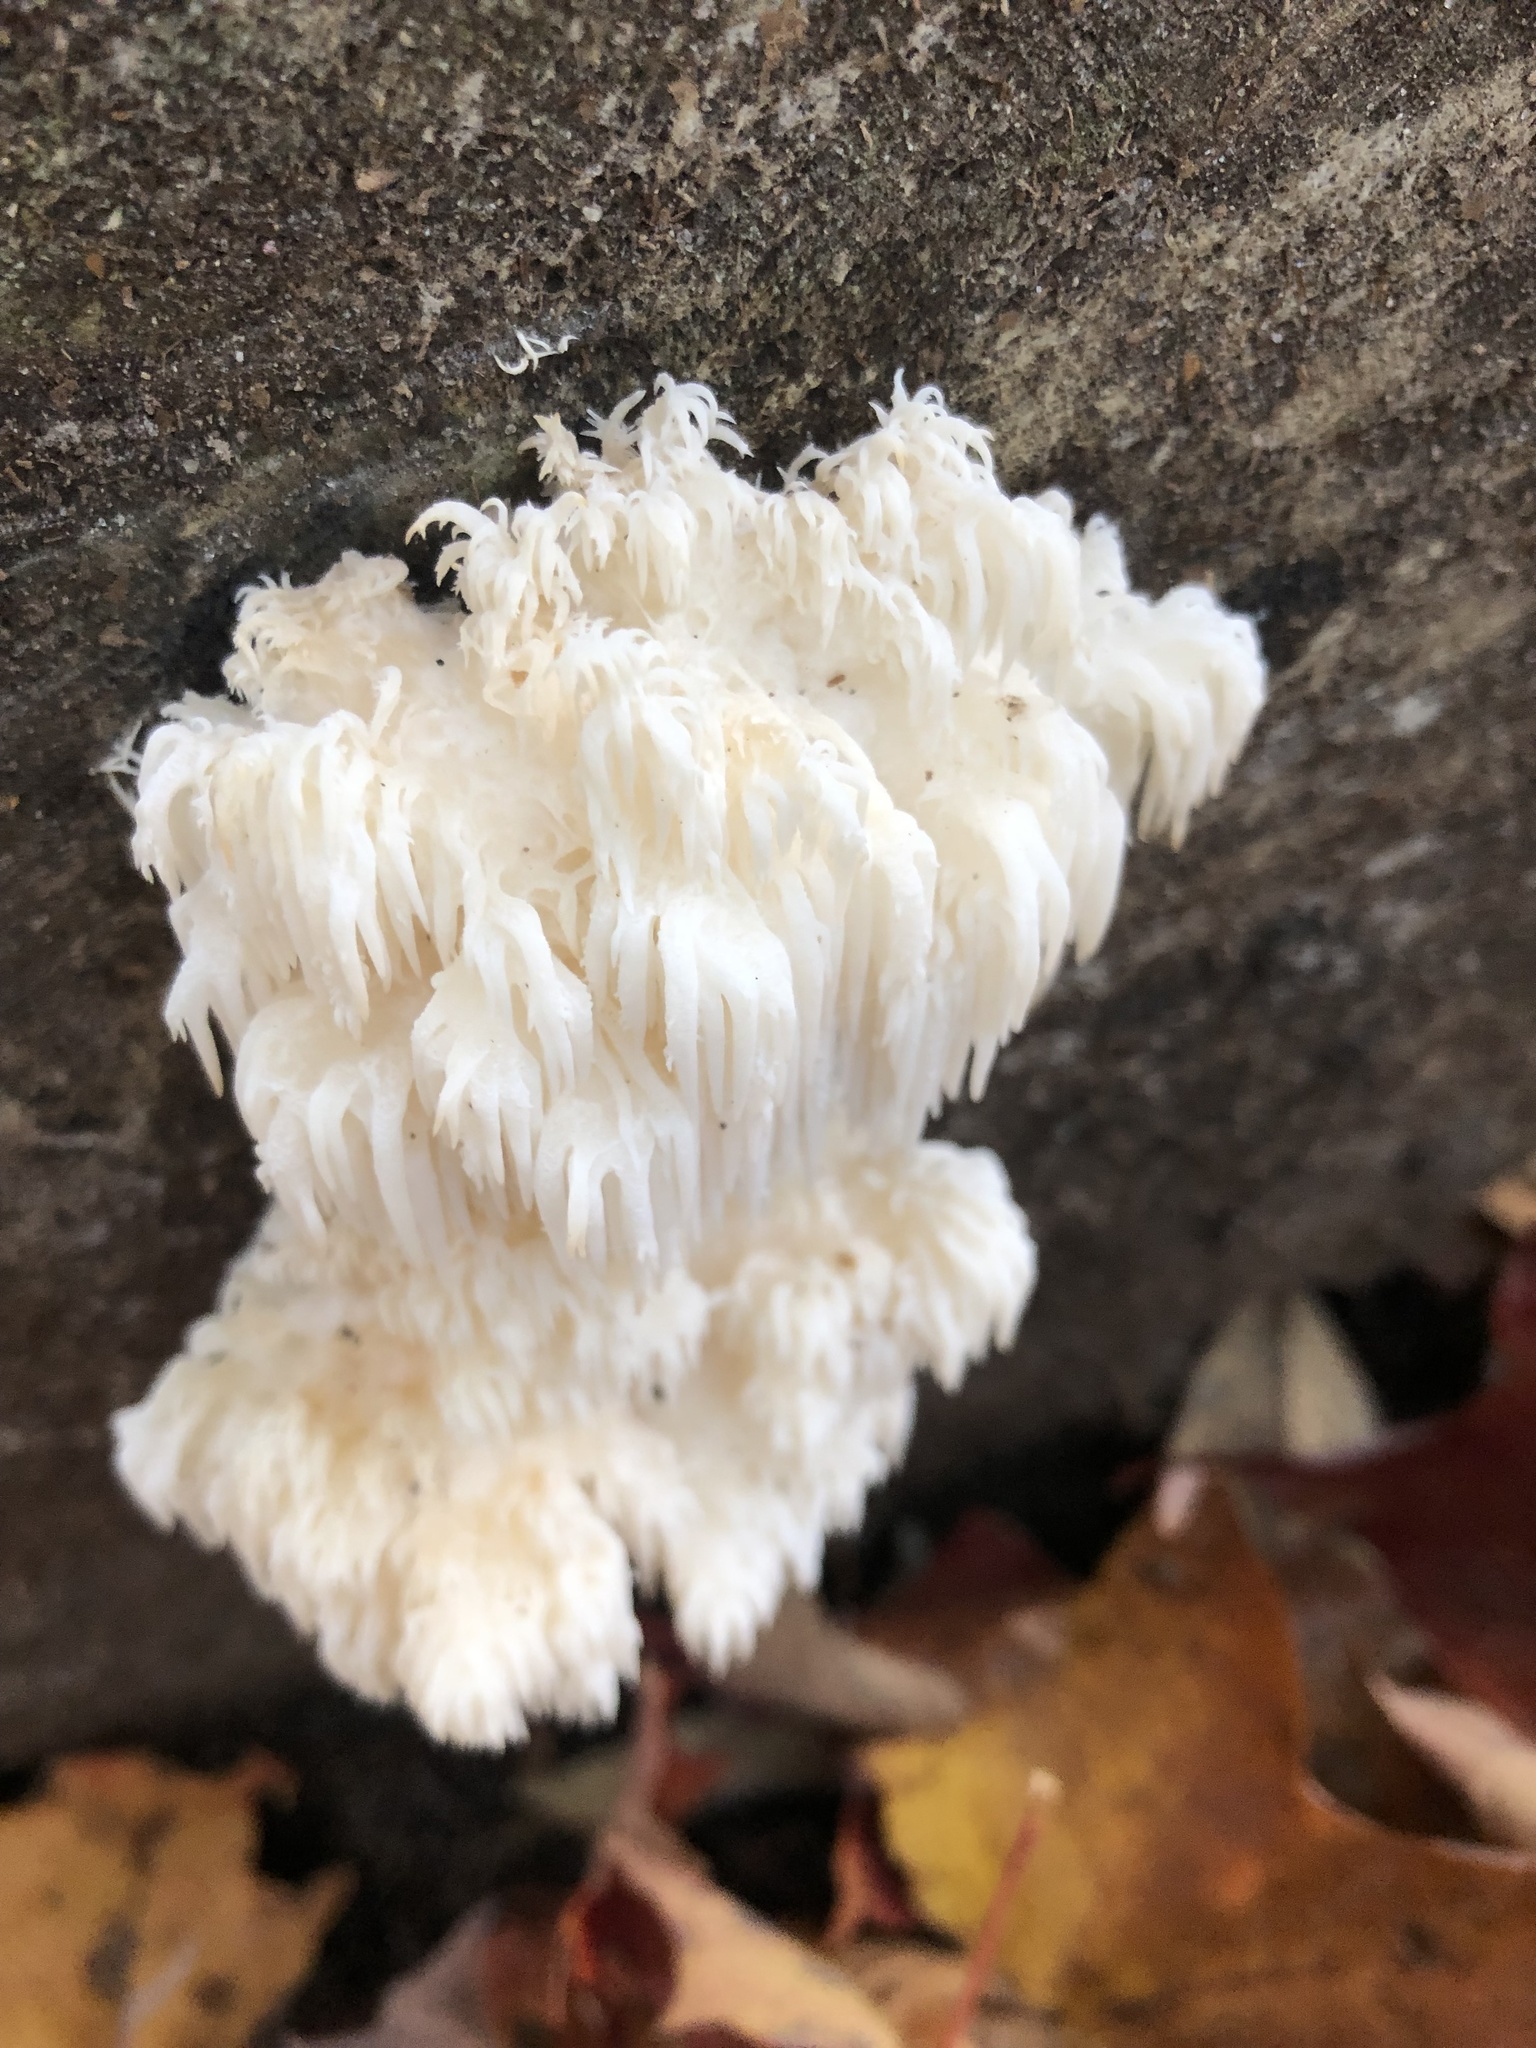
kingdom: Fungi
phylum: Basidiomycota
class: Agaricomycetes
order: Russulales
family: Hericiaceae
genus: Hericium
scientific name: Hericium americanum
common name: Bear's head tooth
